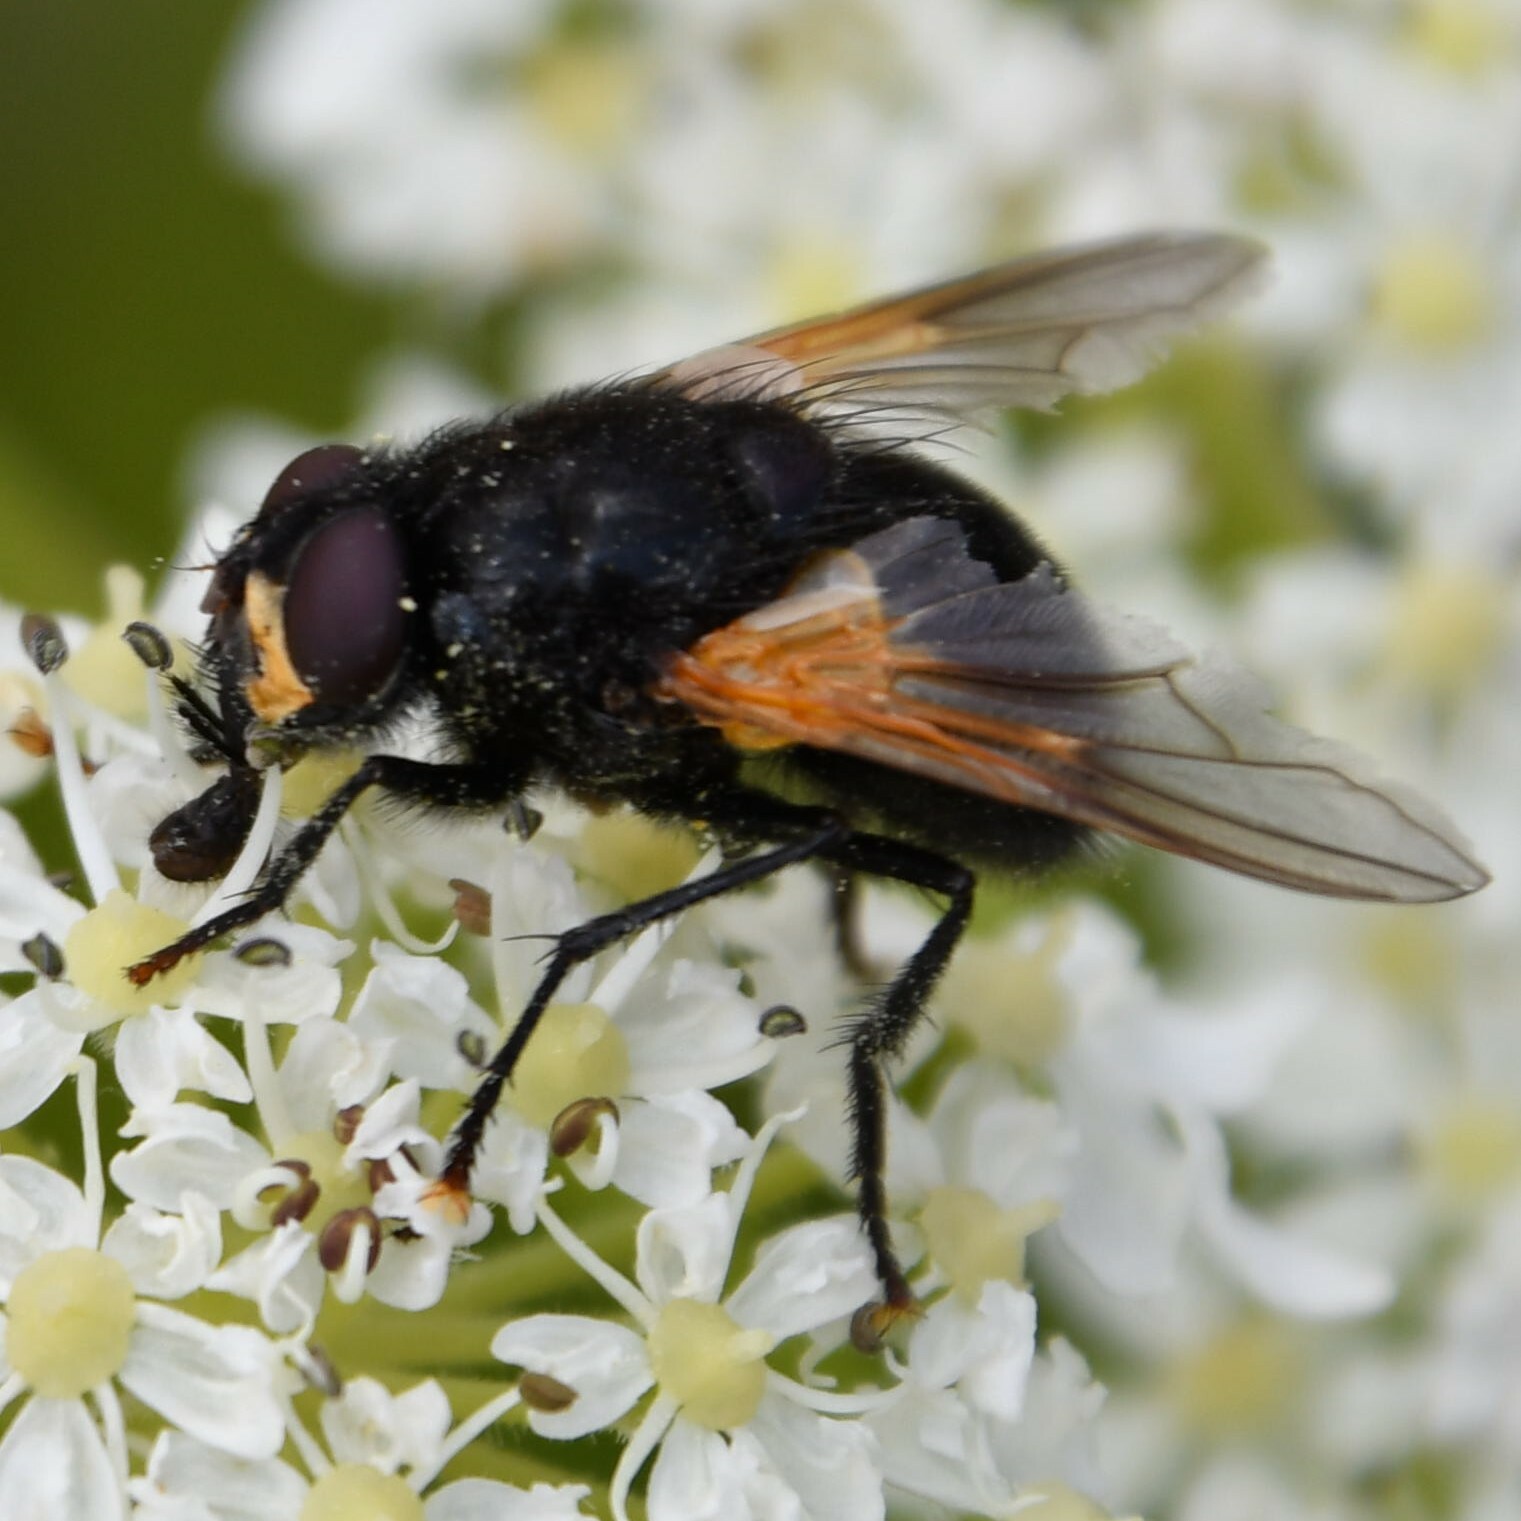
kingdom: Animalia
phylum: Arthropoda
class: Insecta
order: Diptera
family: Muscidae
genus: Mesembrina
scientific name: Mesembrina meridiana
